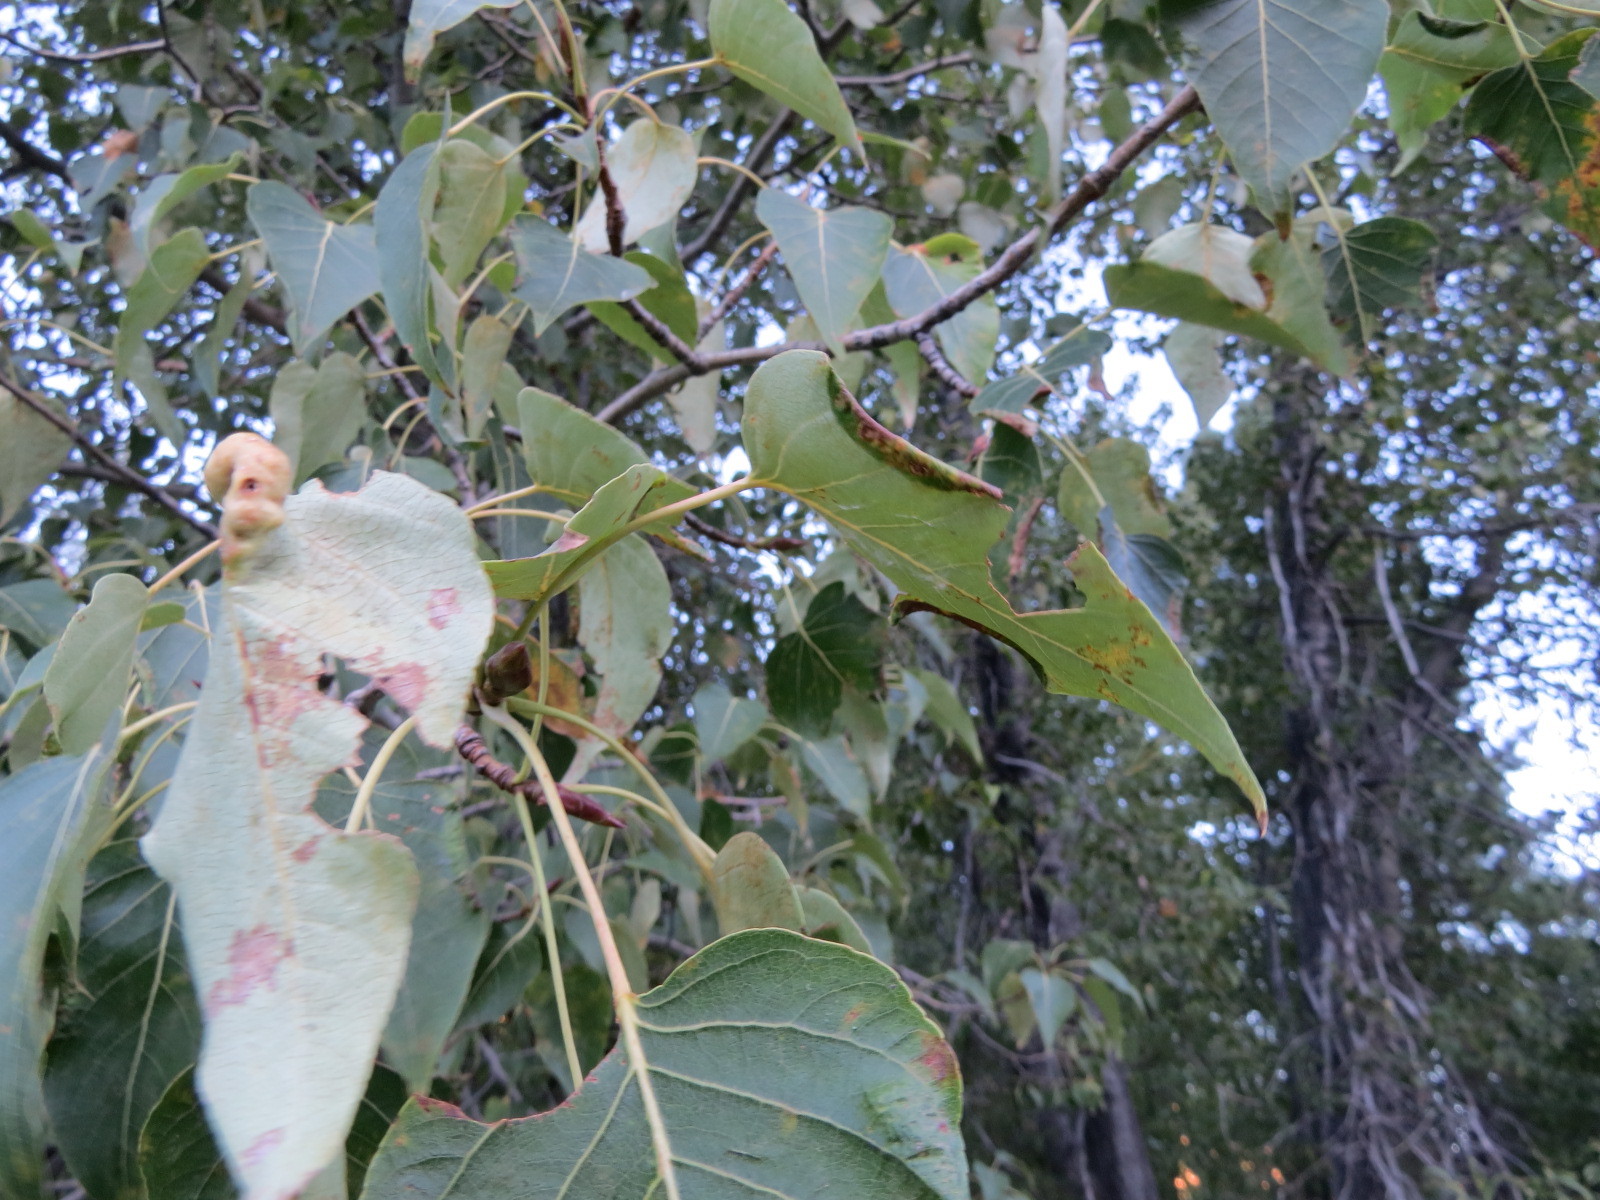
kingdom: Animalia
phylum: Arthropoda
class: Insecta
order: Hemiptera
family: Aphididae
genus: Pemphigus
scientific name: Pemphigus populi-globuli
